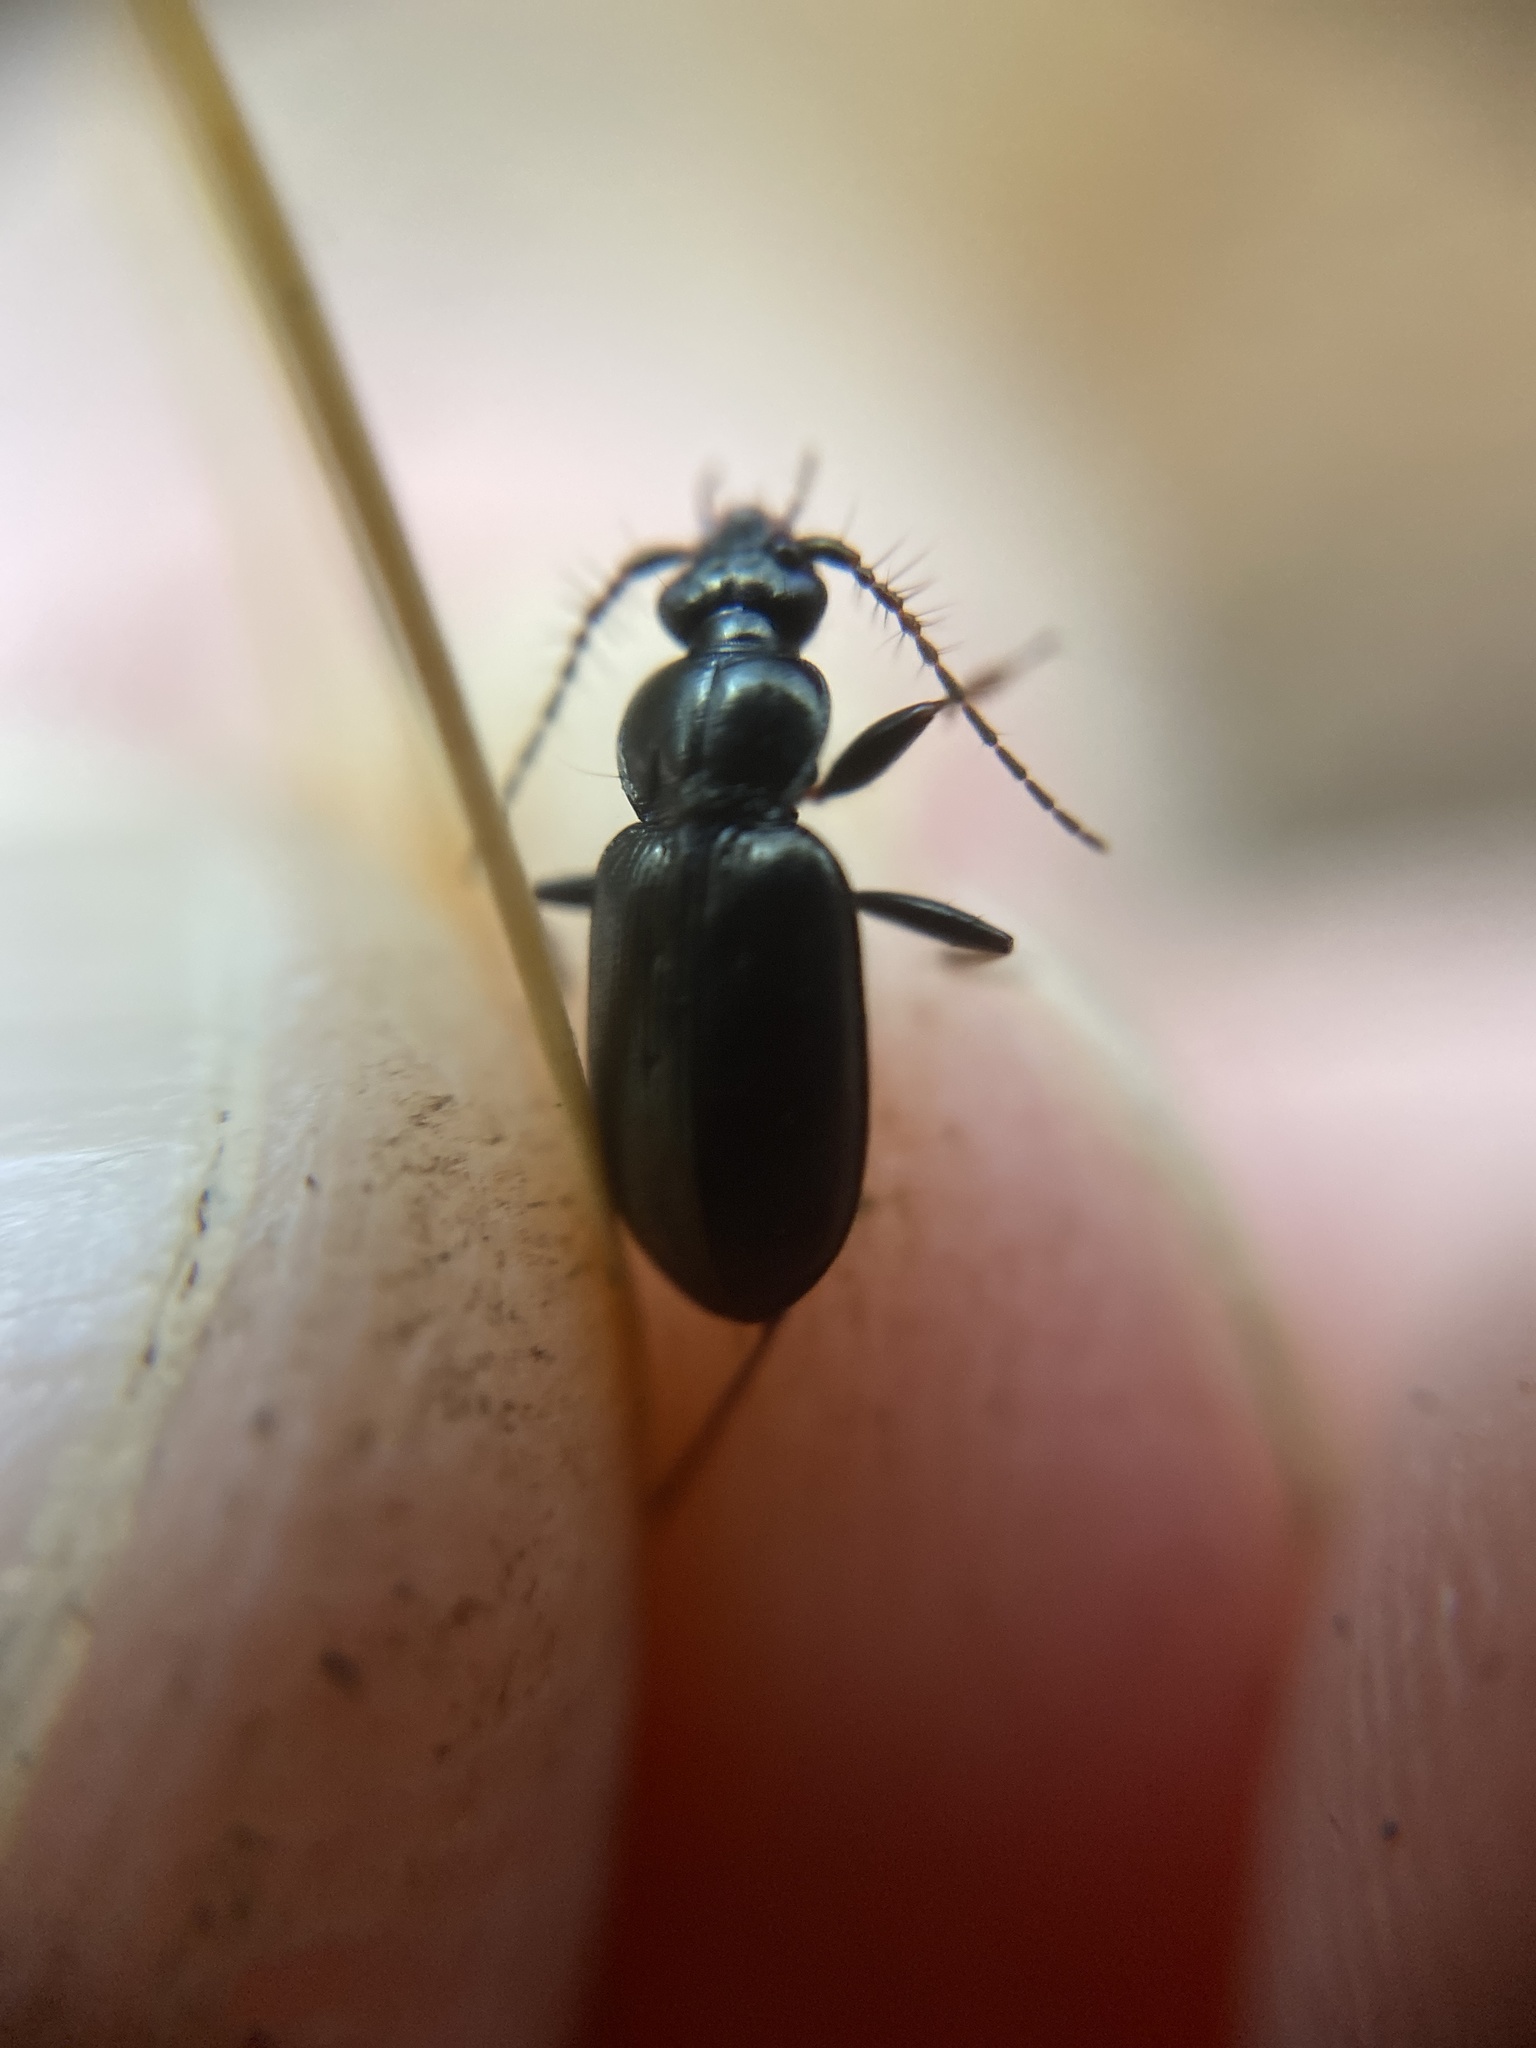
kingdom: Animalia
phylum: Arthropoda
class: Insecta
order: Coleoptera
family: Carabidae
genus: Loricera
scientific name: Loricera pilicornis
